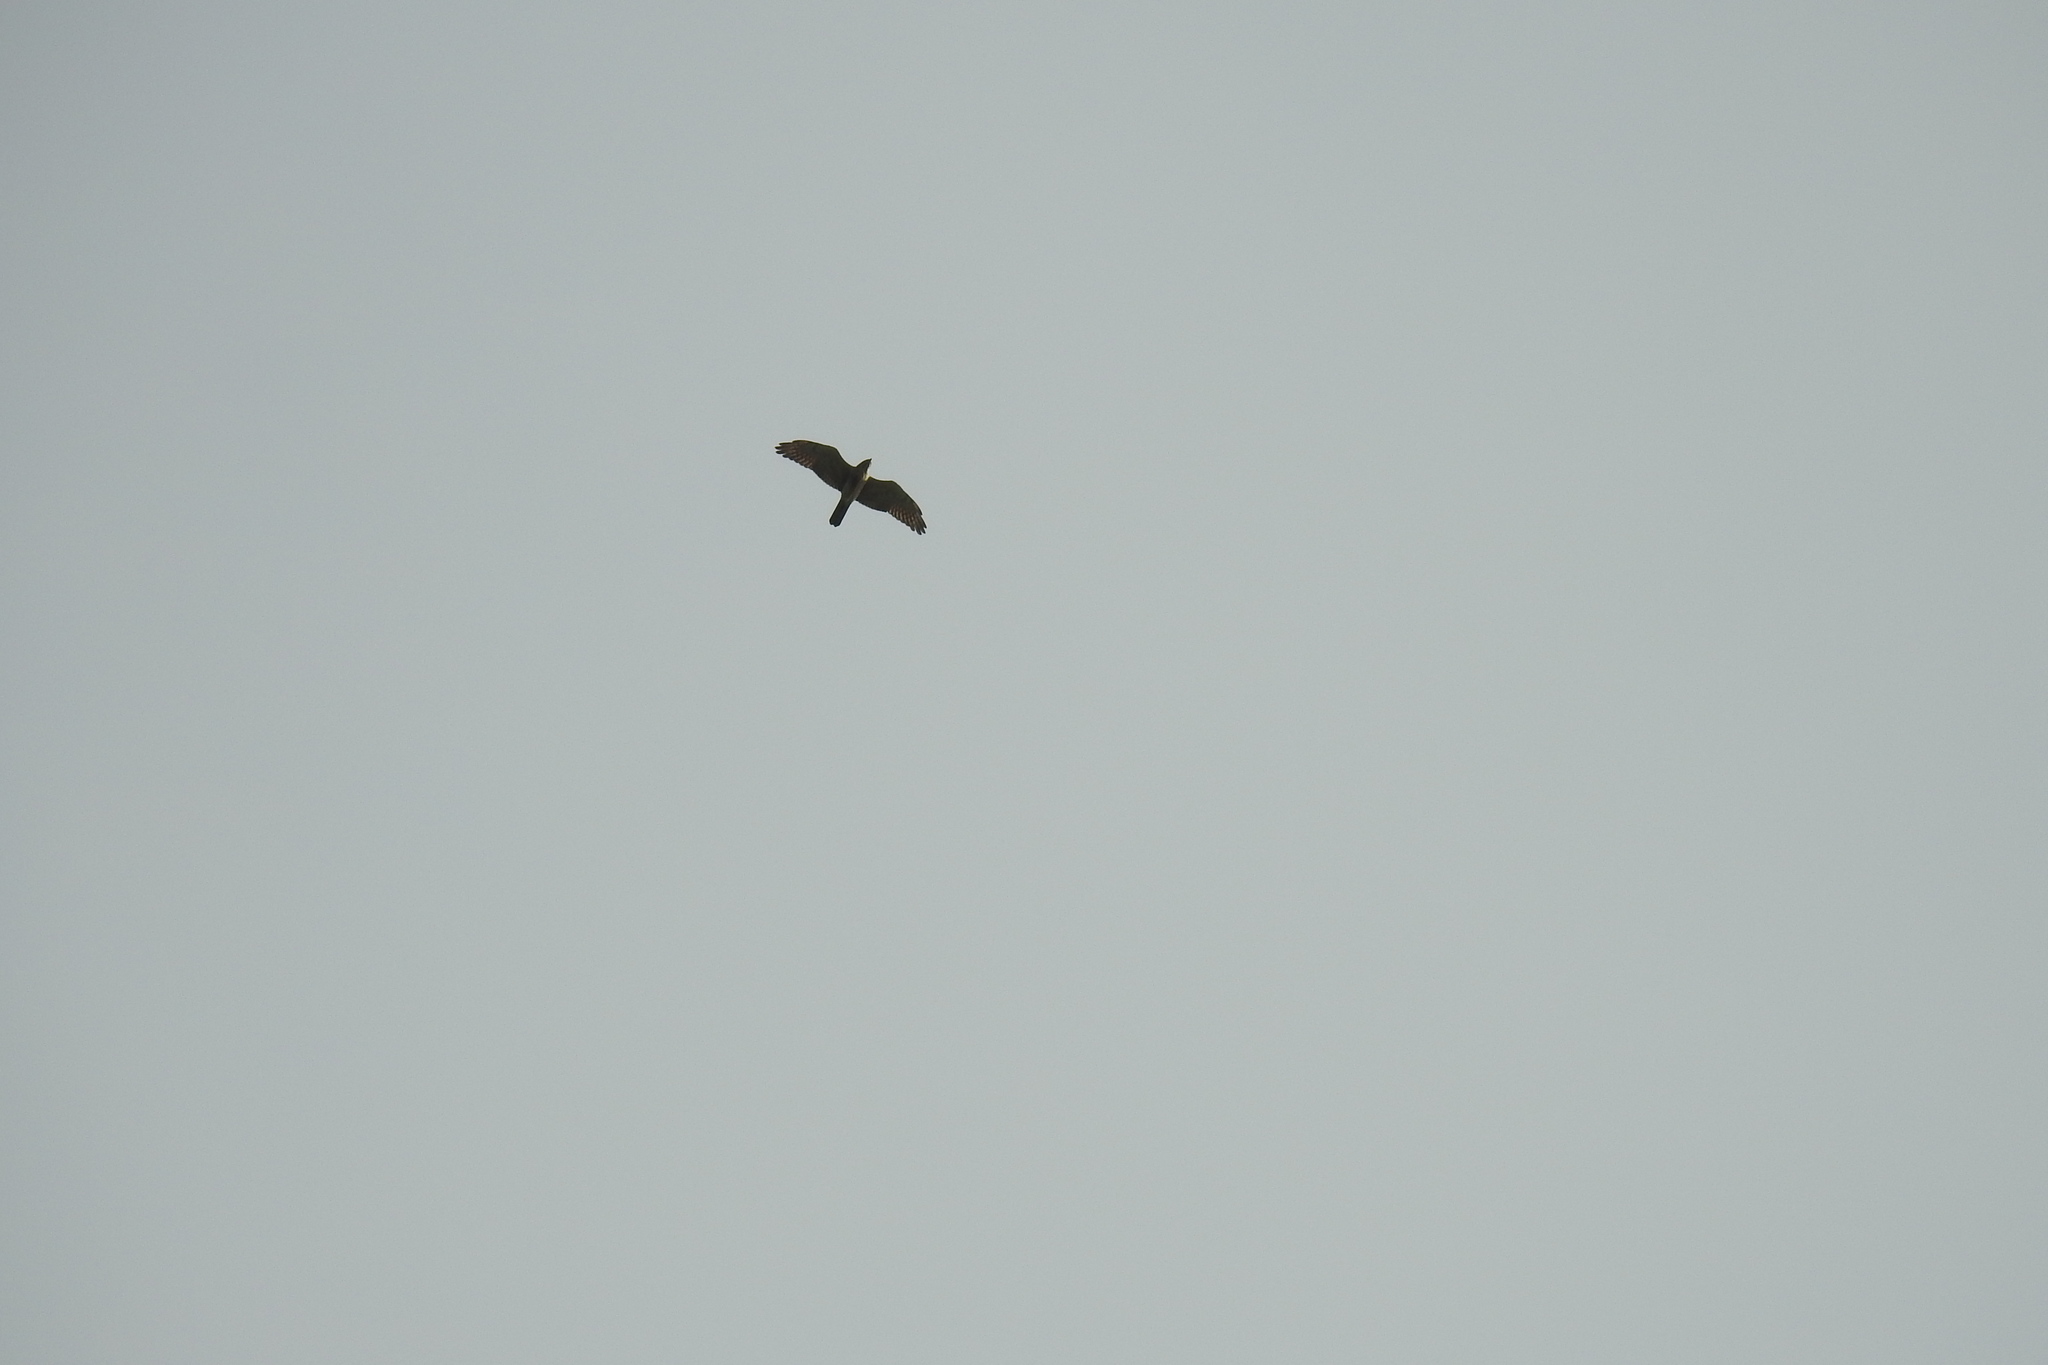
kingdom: Animalia
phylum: Chordata
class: Aves
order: Accipitriformes
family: Accipitridae
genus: Butastur
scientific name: Butastur indicus
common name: Grey-faced buzzard
